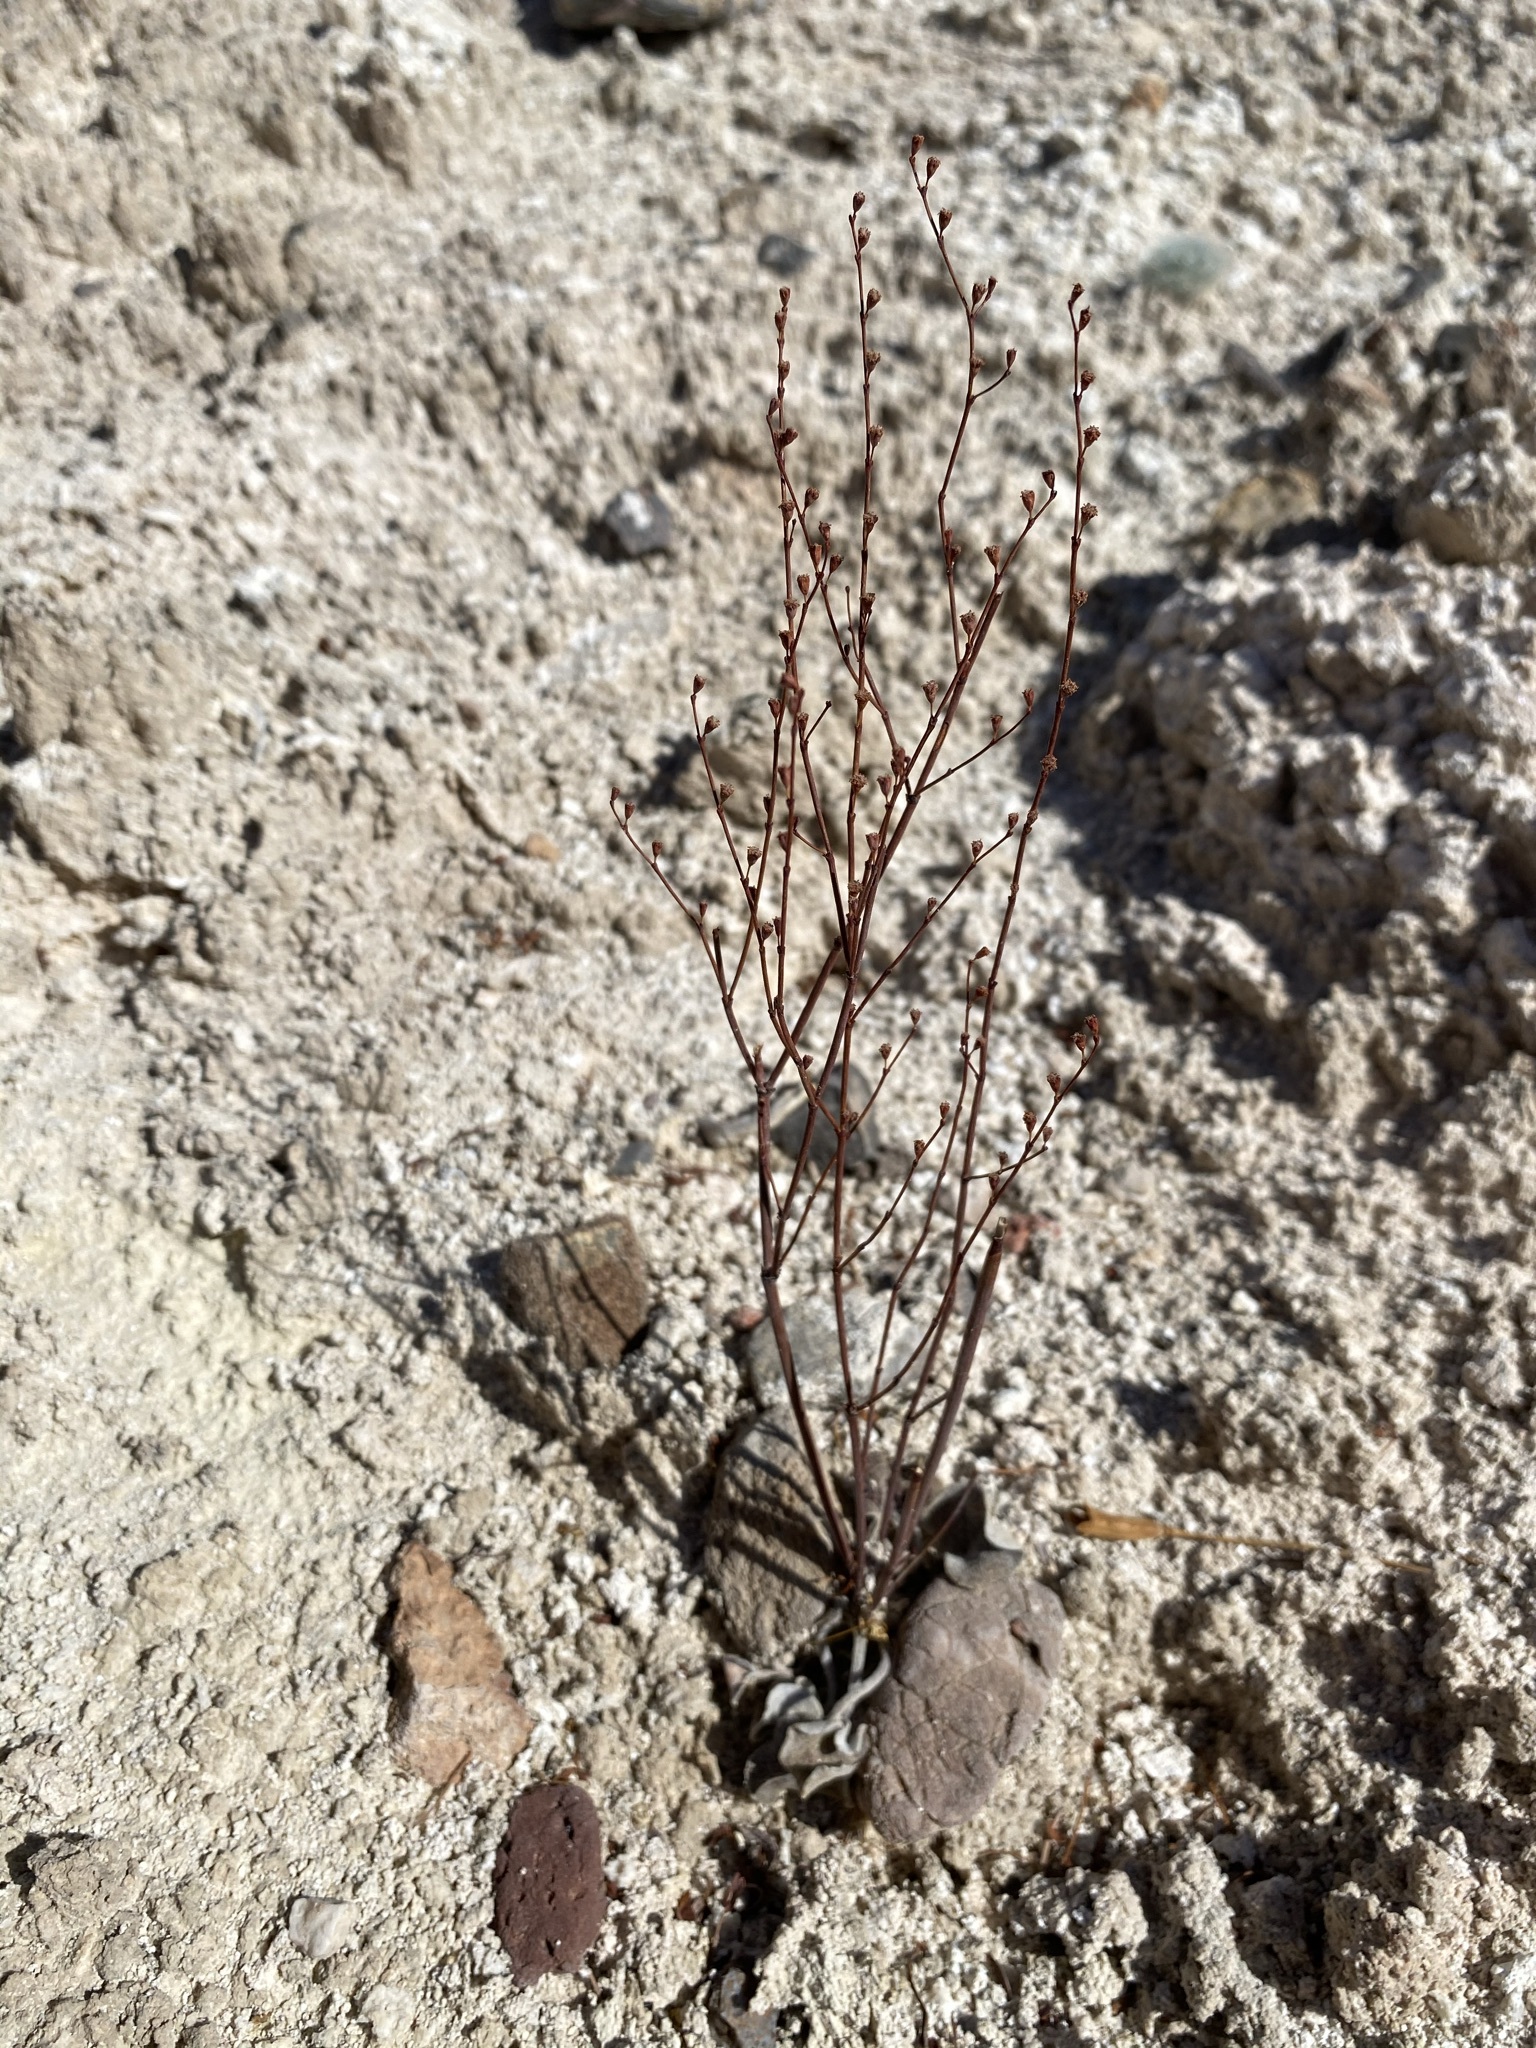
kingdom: Plantae
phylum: Tracheophyta
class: Magnoliopsida
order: Caryophyllales
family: Polygonaceae
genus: Eriogonum
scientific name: Eriogonum exaltatum
